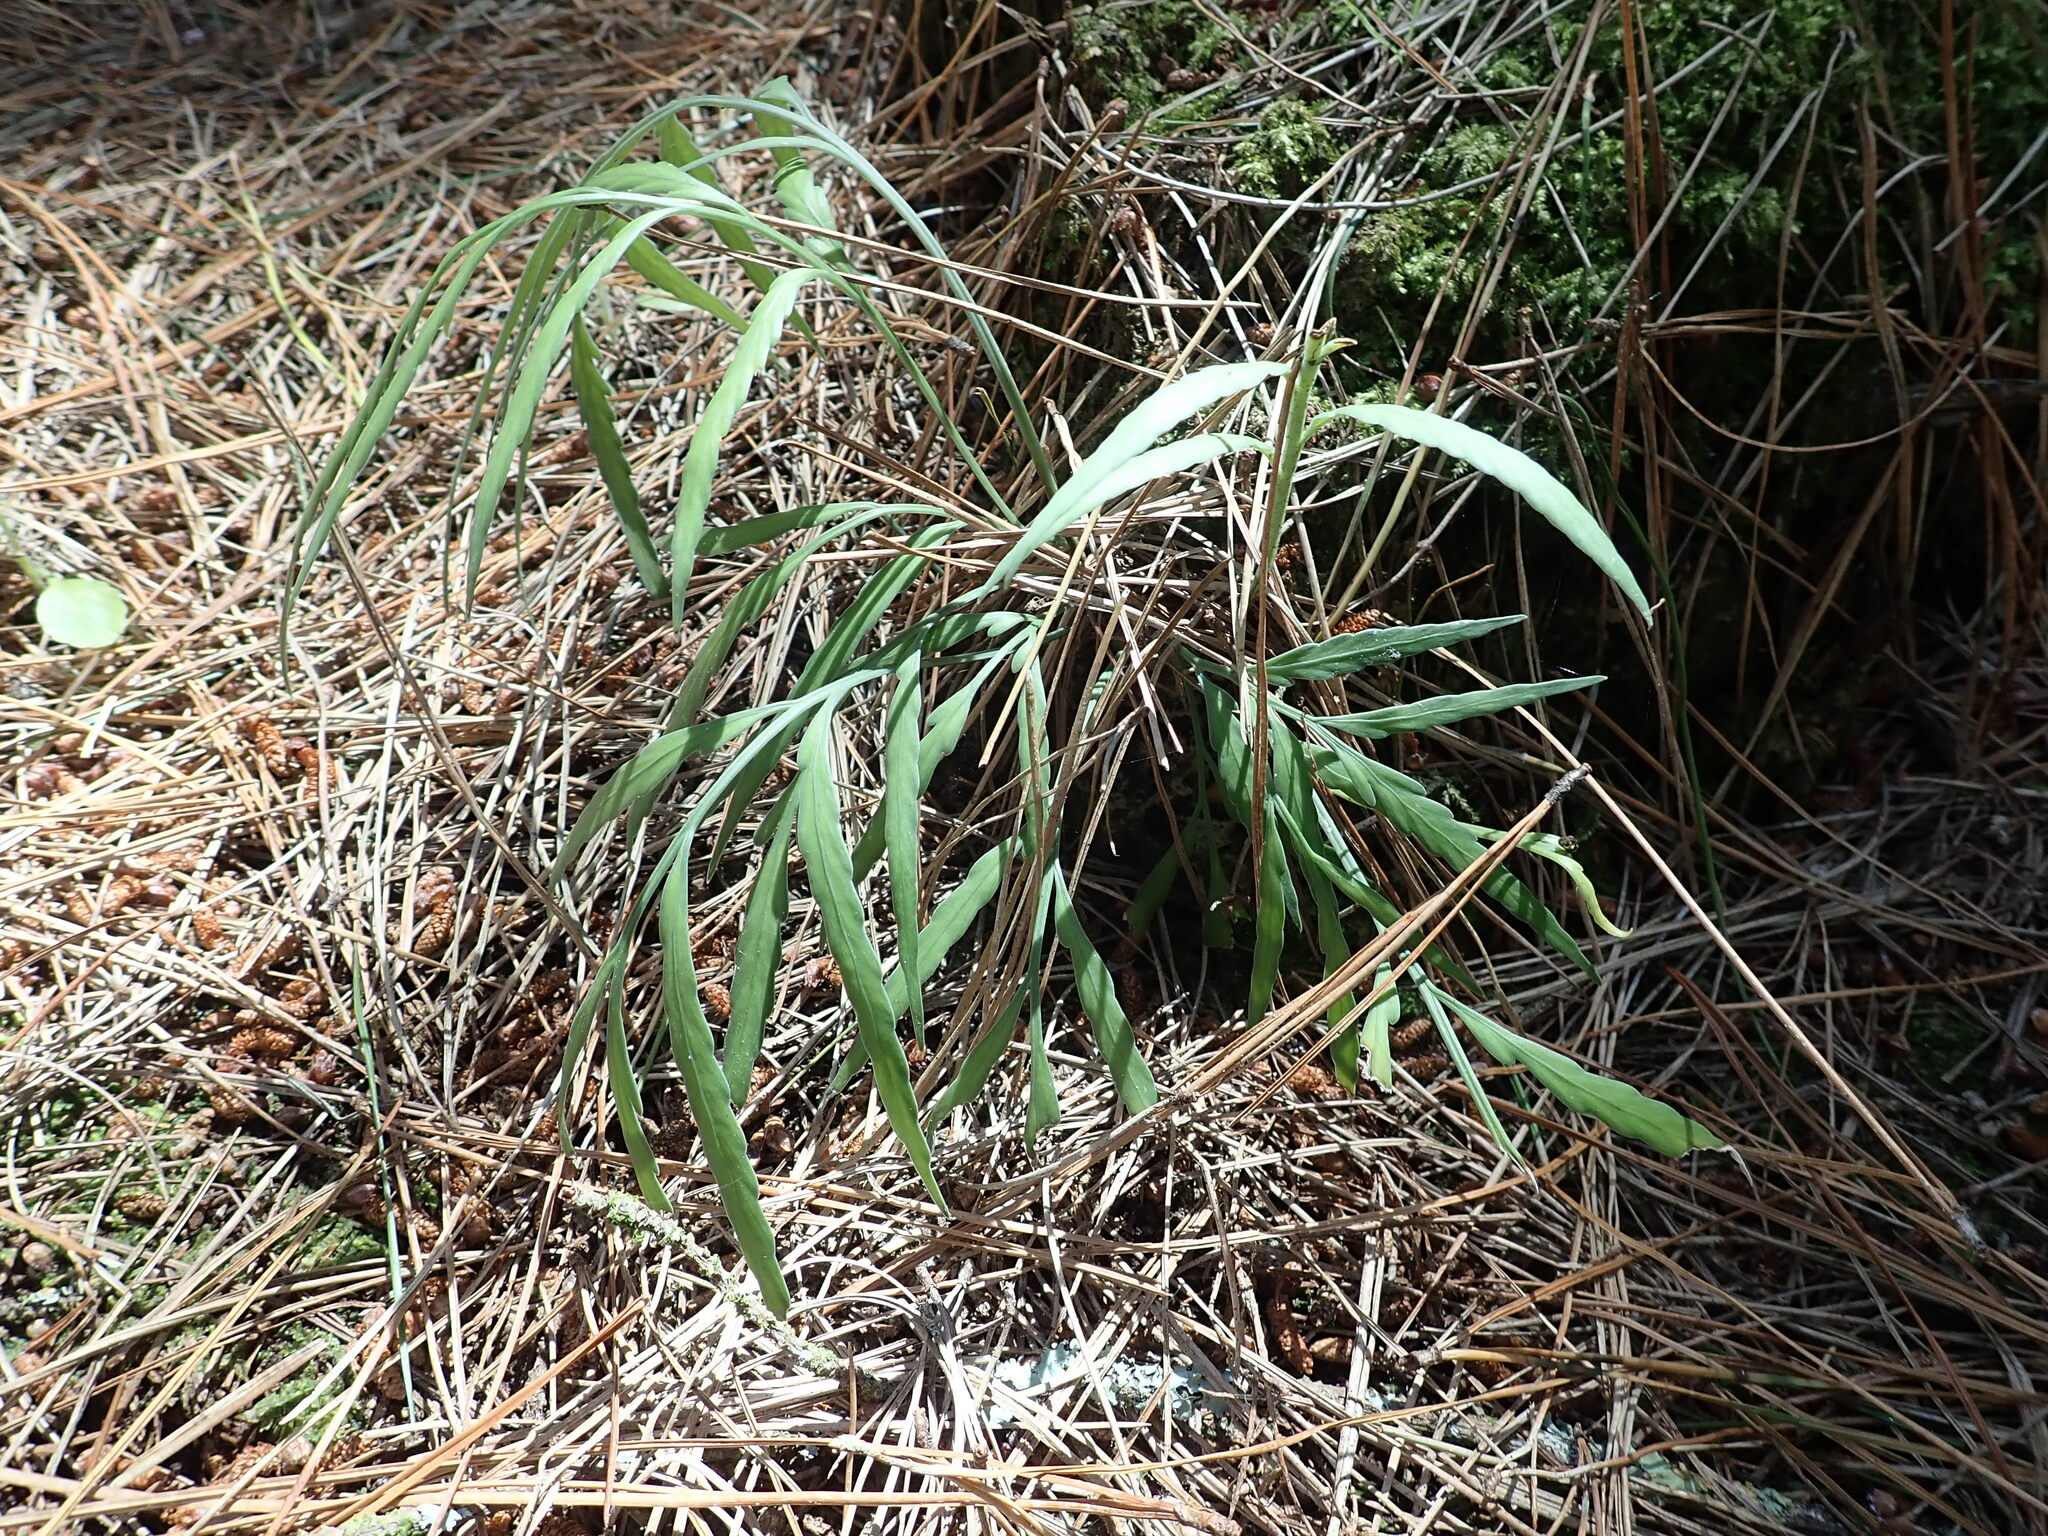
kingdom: Plantae
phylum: Tracheophyta
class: Polypodiopsida
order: Polypodiales
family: Aspleniaceae
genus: Asplenium
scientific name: Asplenium flaccidum
